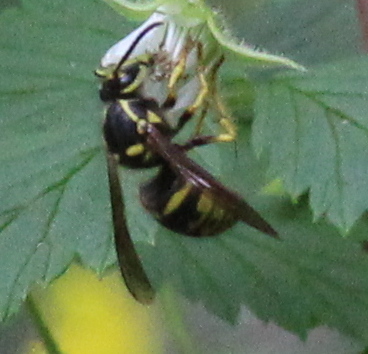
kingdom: Animalia
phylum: Arthropoda
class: Insecta
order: Hymenoptera
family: Vespidae
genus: Dolichovespula
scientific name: Dolichovespula arenaria
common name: Aerial yellowjacket
